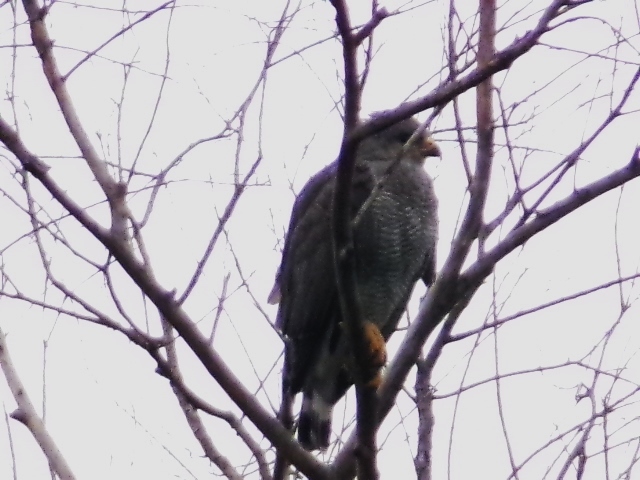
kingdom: Animalia
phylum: Chordata
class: Aves
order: Accipitriformes
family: Accipitridae
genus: Buteo
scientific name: Buteo nitidus
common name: Grey-lined hawk
